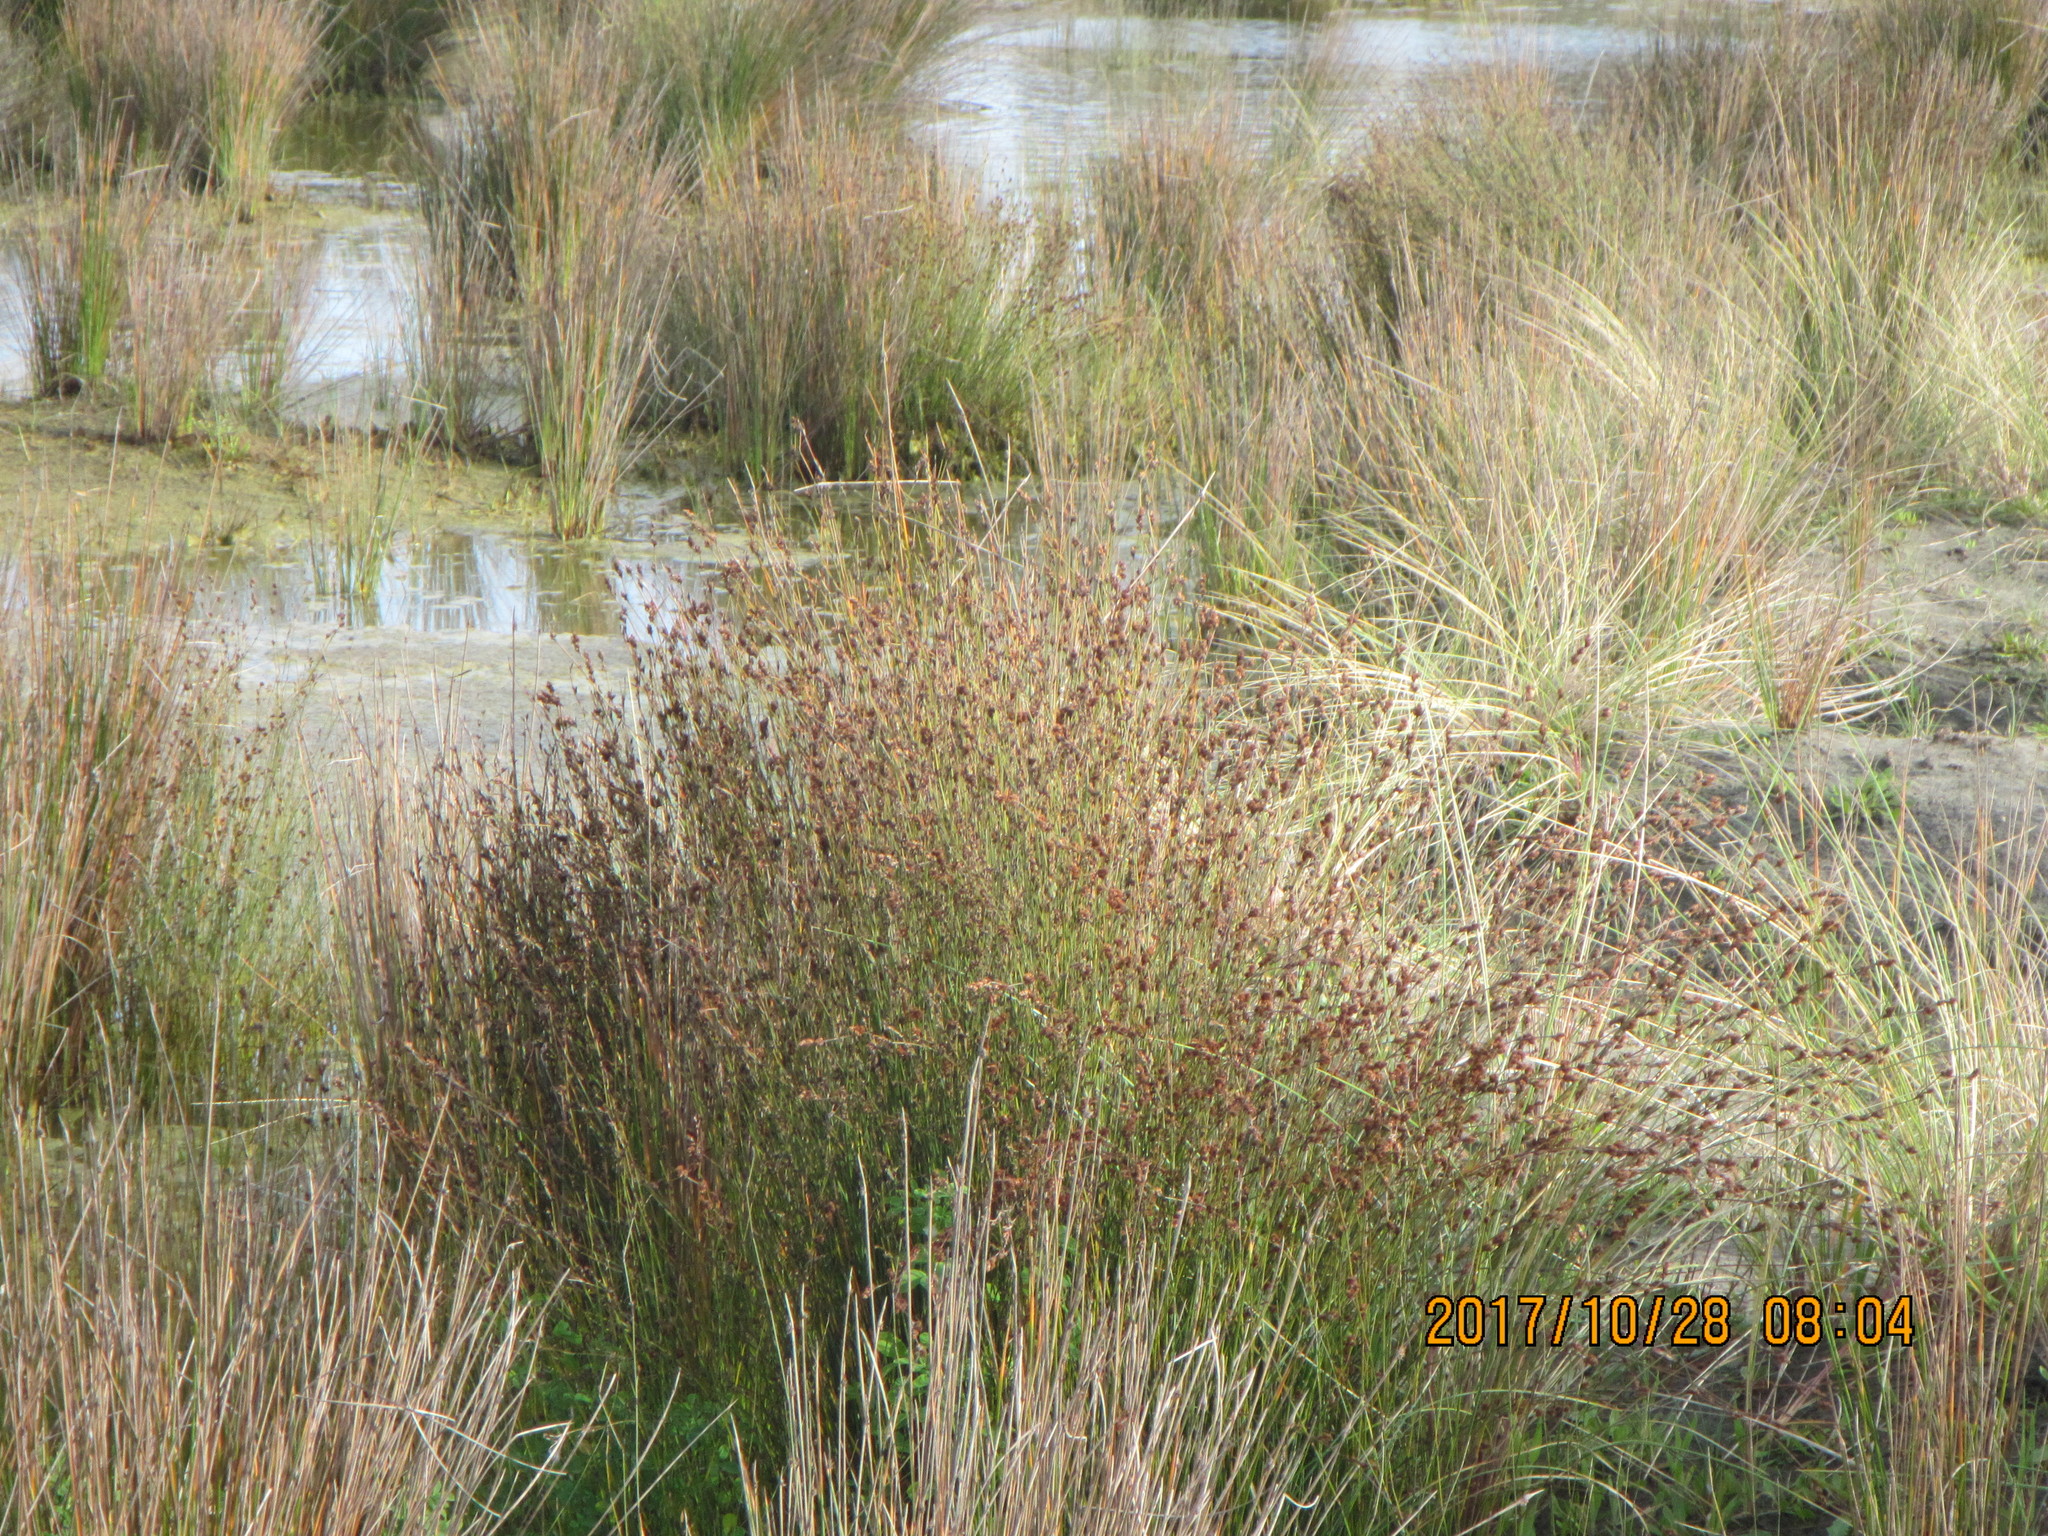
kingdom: Plantae
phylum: Tracheophyta
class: Liliopsida
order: Poales
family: Restionaceae
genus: Apodasmia
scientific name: Apodasmia similis
